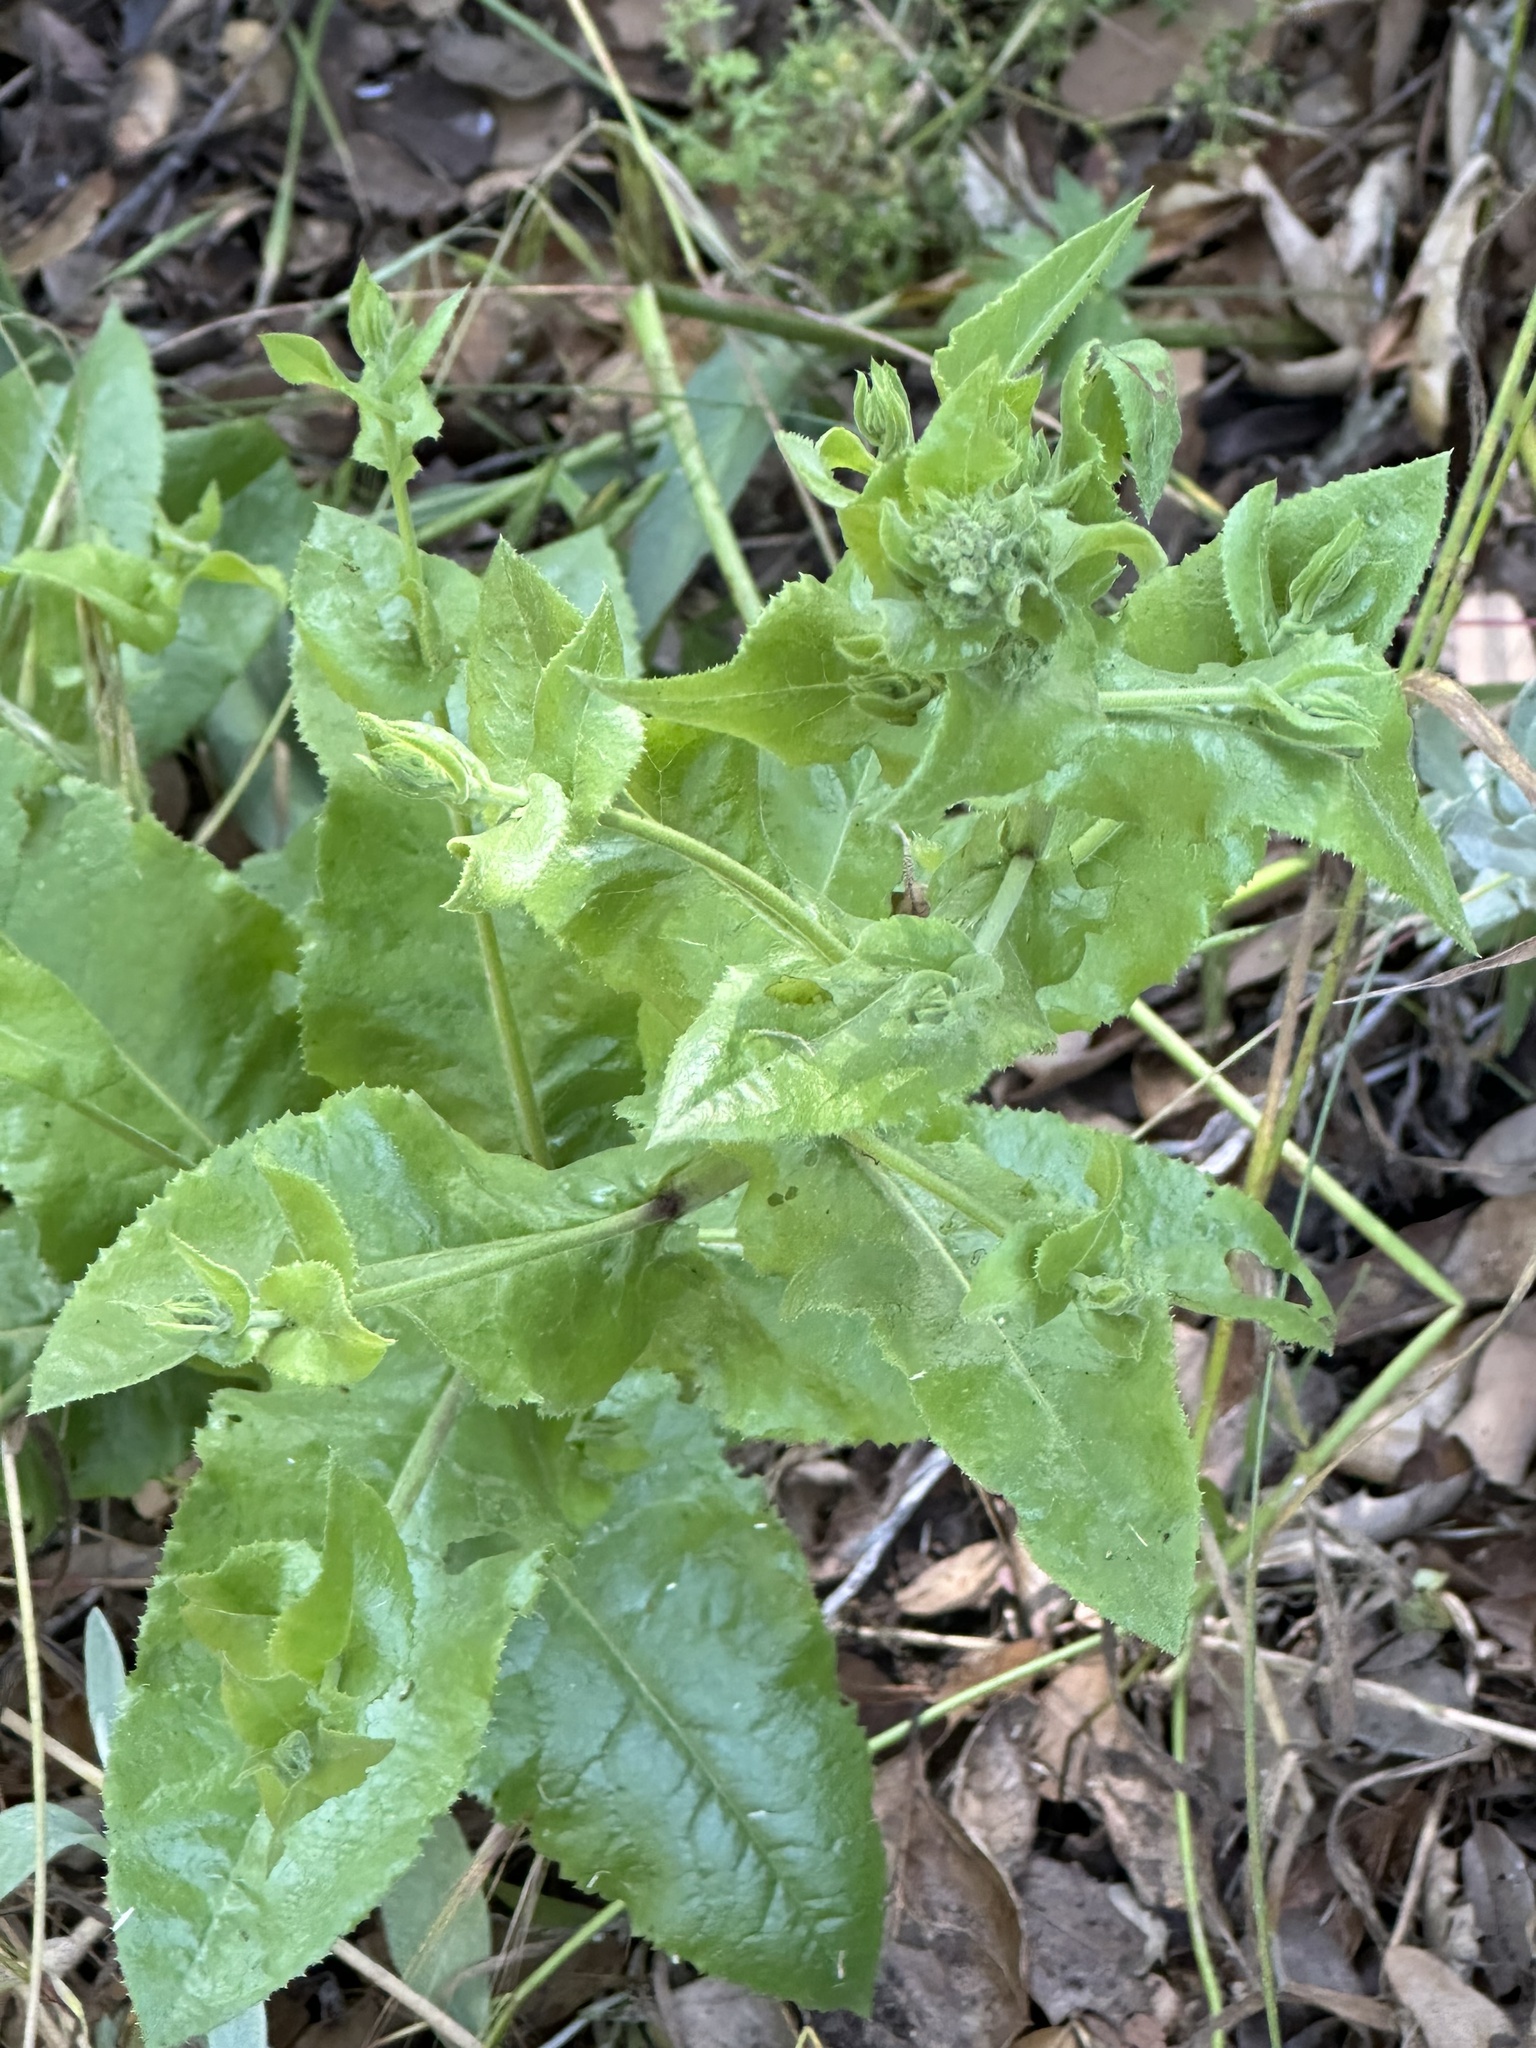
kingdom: Plantae
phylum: Tracheophyta
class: Magnoliopsida
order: Asterales
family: Asteraceae
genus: Acourtia
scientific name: Acourtia microcephala
